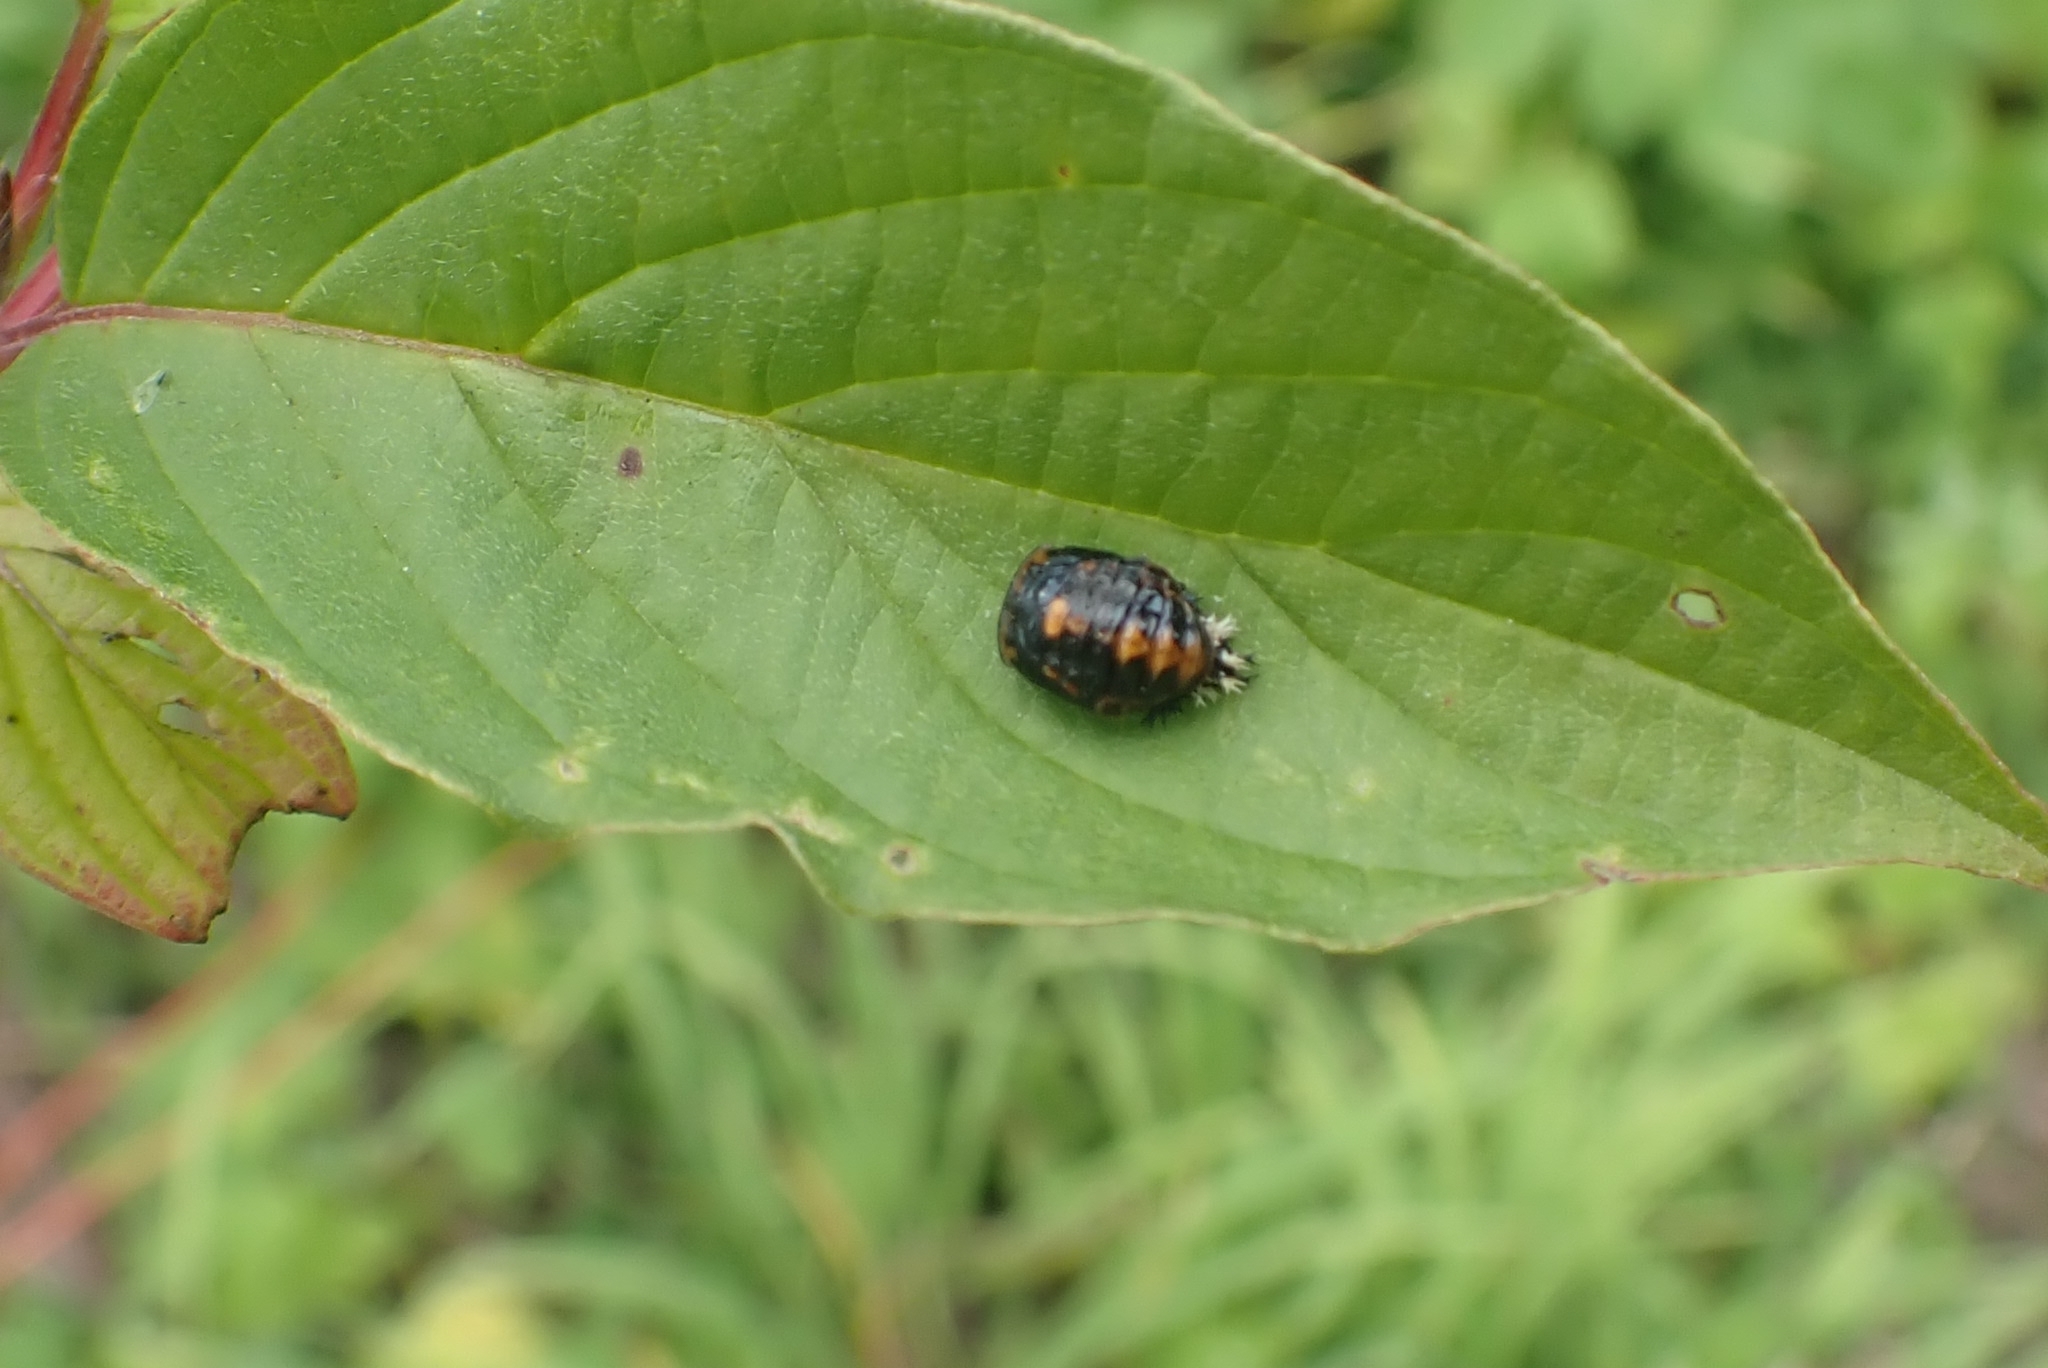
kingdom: Animalia
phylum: Arthropoda
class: Insecta
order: Coleoptera
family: Coccinellidae
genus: Harmonia
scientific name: Harmonia axyridis
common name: Harlequin ladybird
